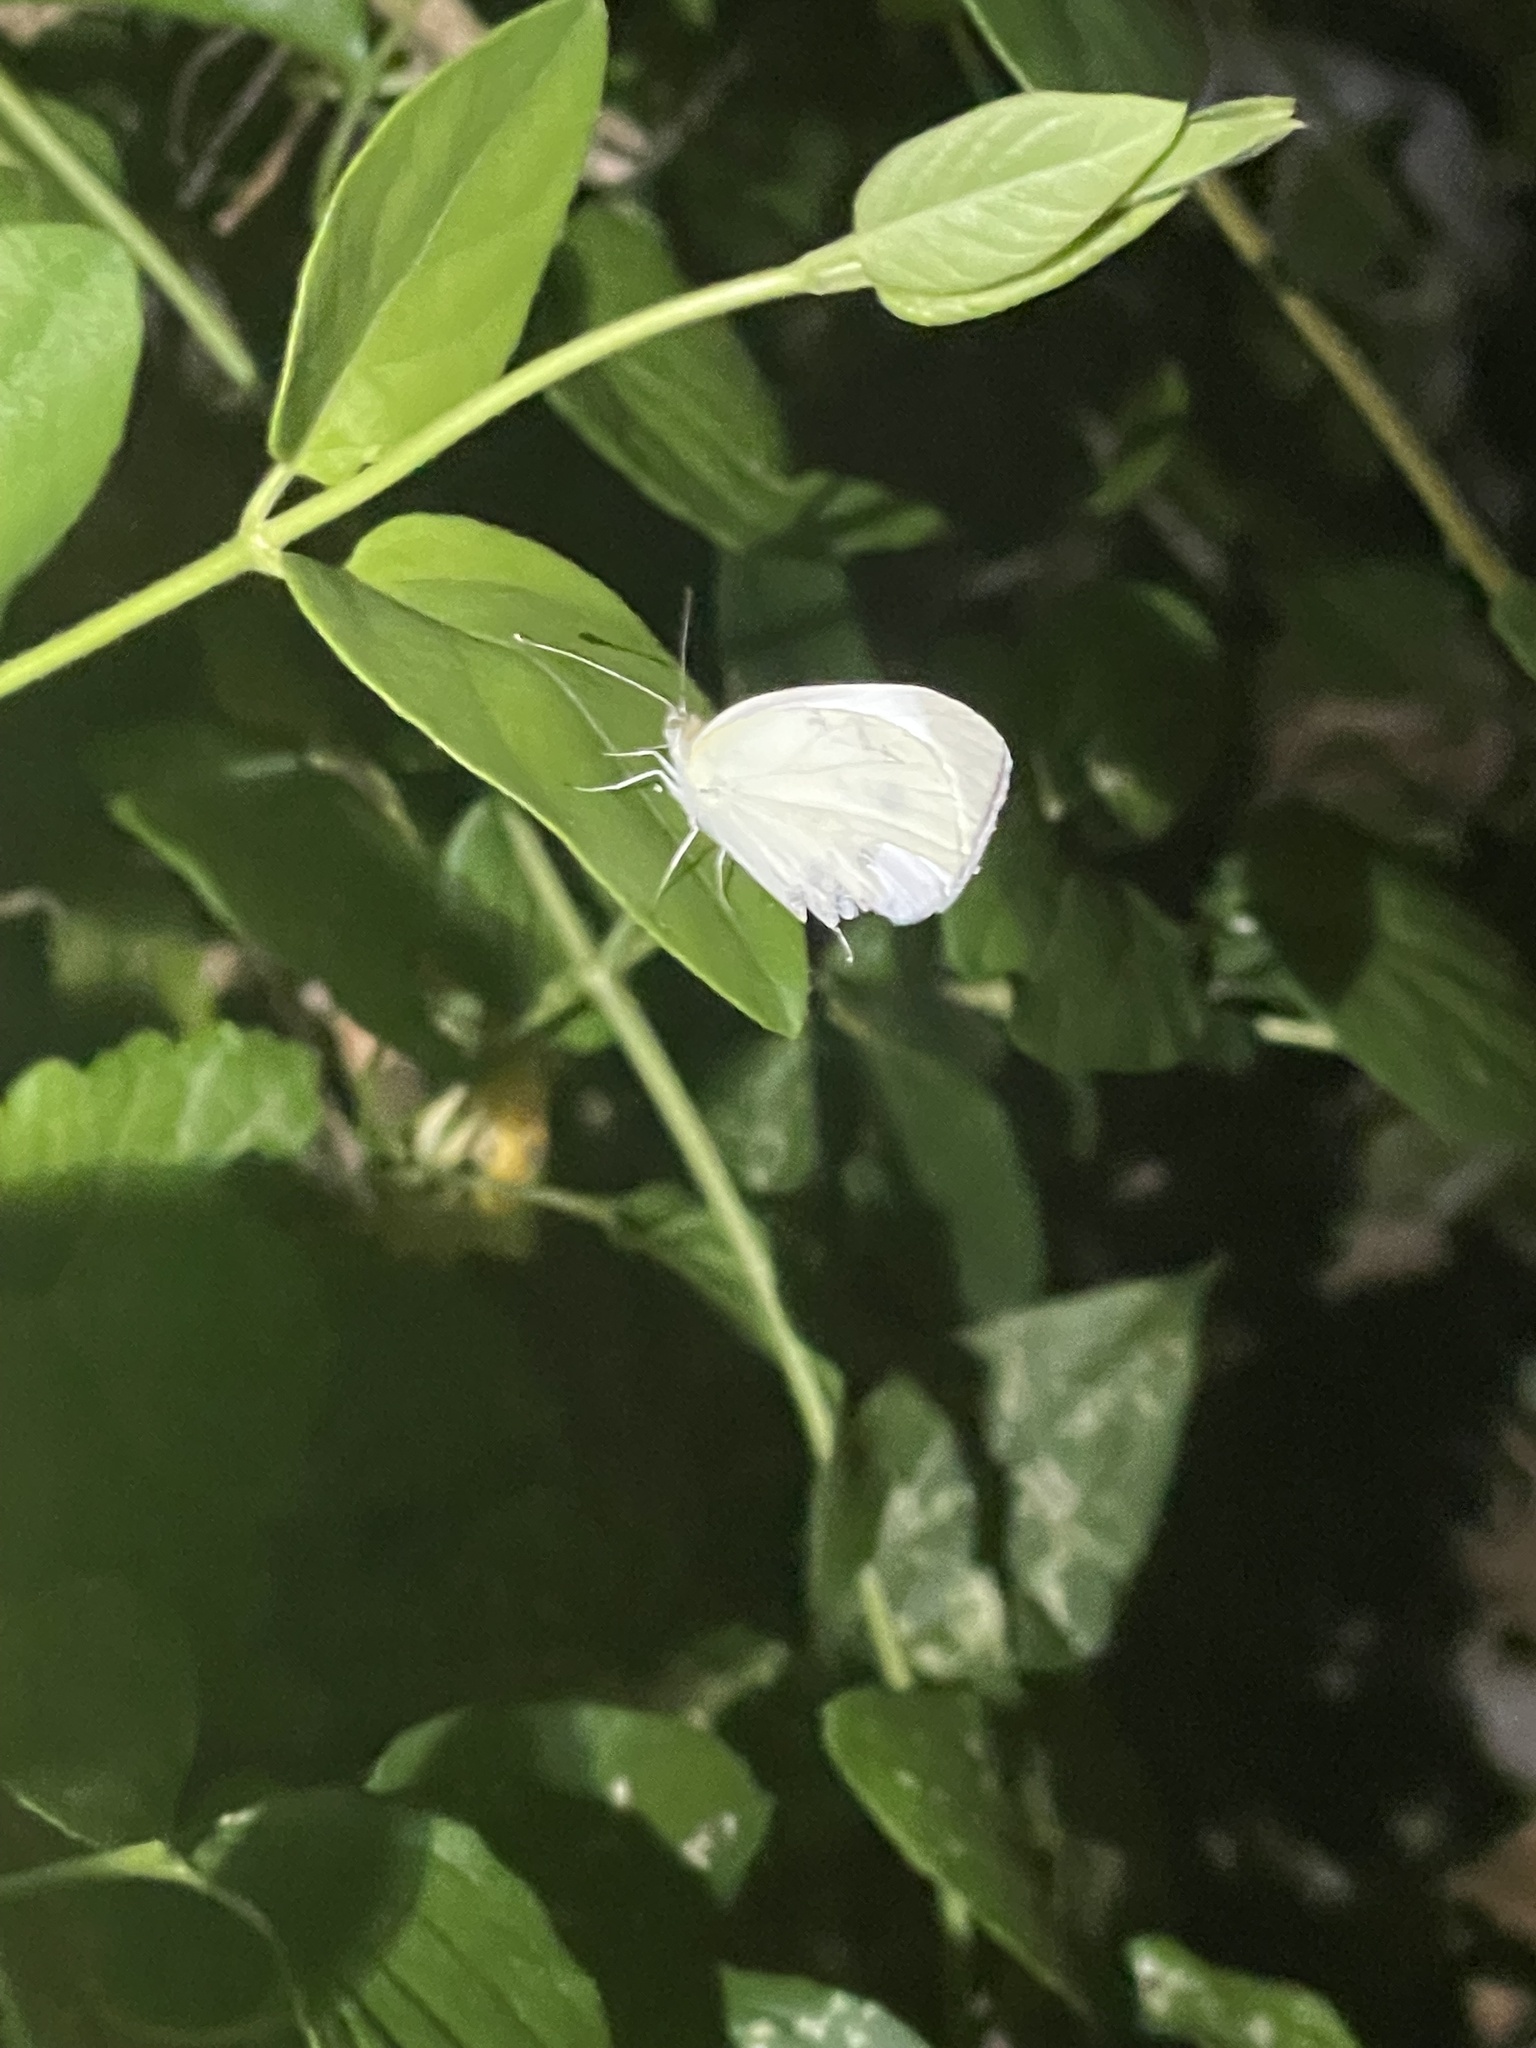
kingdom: Animalia
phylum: Arthropoda
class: Insecta
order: Lepidoptera
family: Pieridae
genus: Pieris
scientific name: Pieris rapae
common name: Small white
